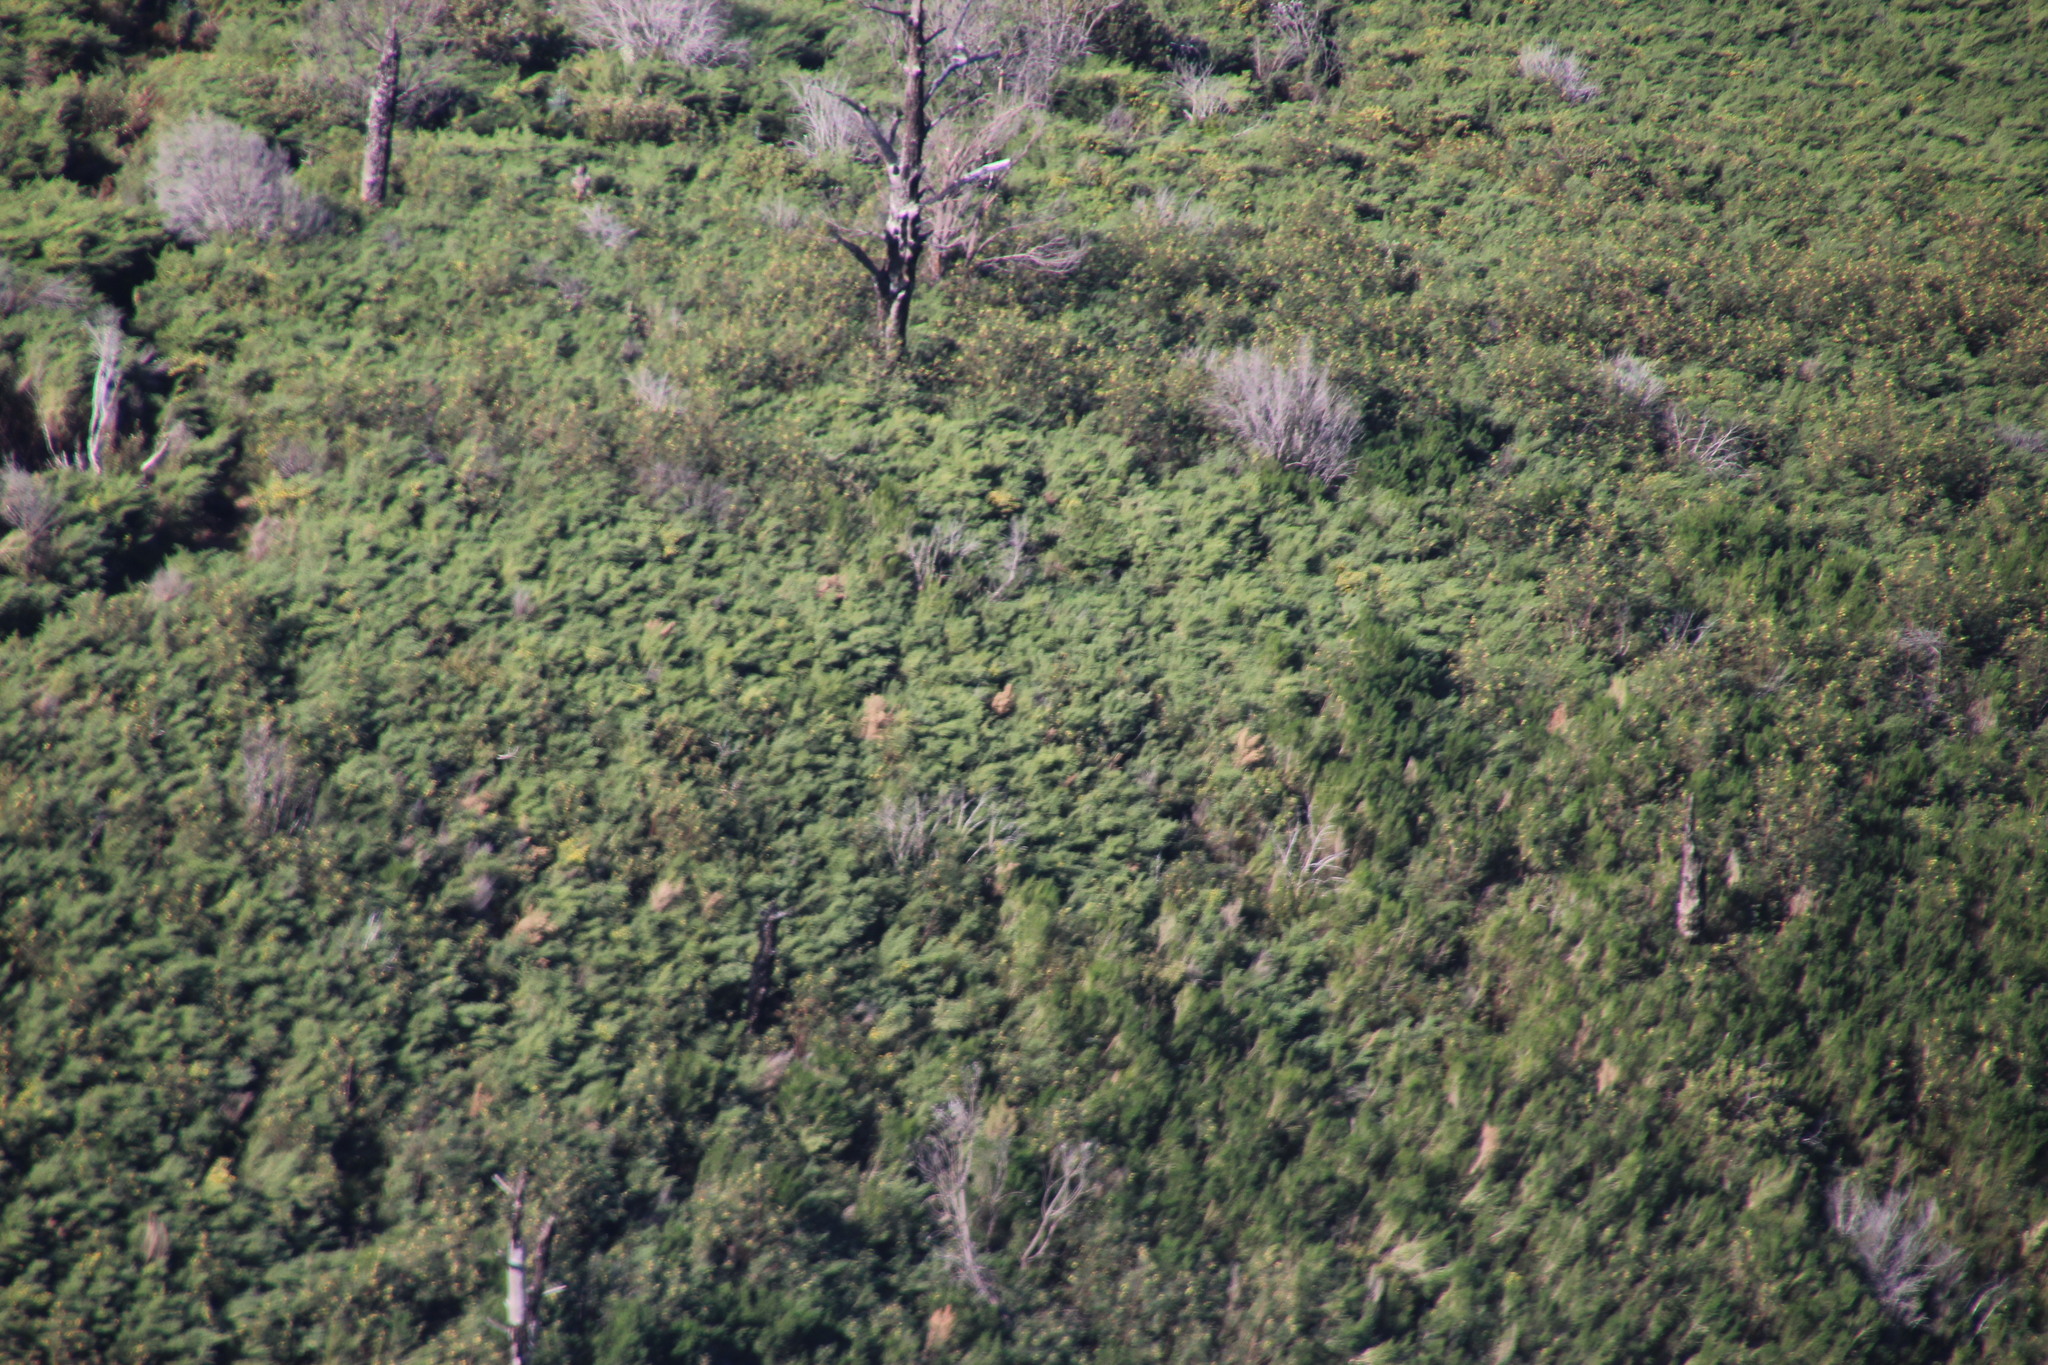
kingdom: Plantae
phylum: Tracheophyta
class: Magnoliopsida
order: Fabales
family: Fabaceae
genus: Paraserianthes
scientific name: Paraserianthes lophantha
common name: Plume albizia
